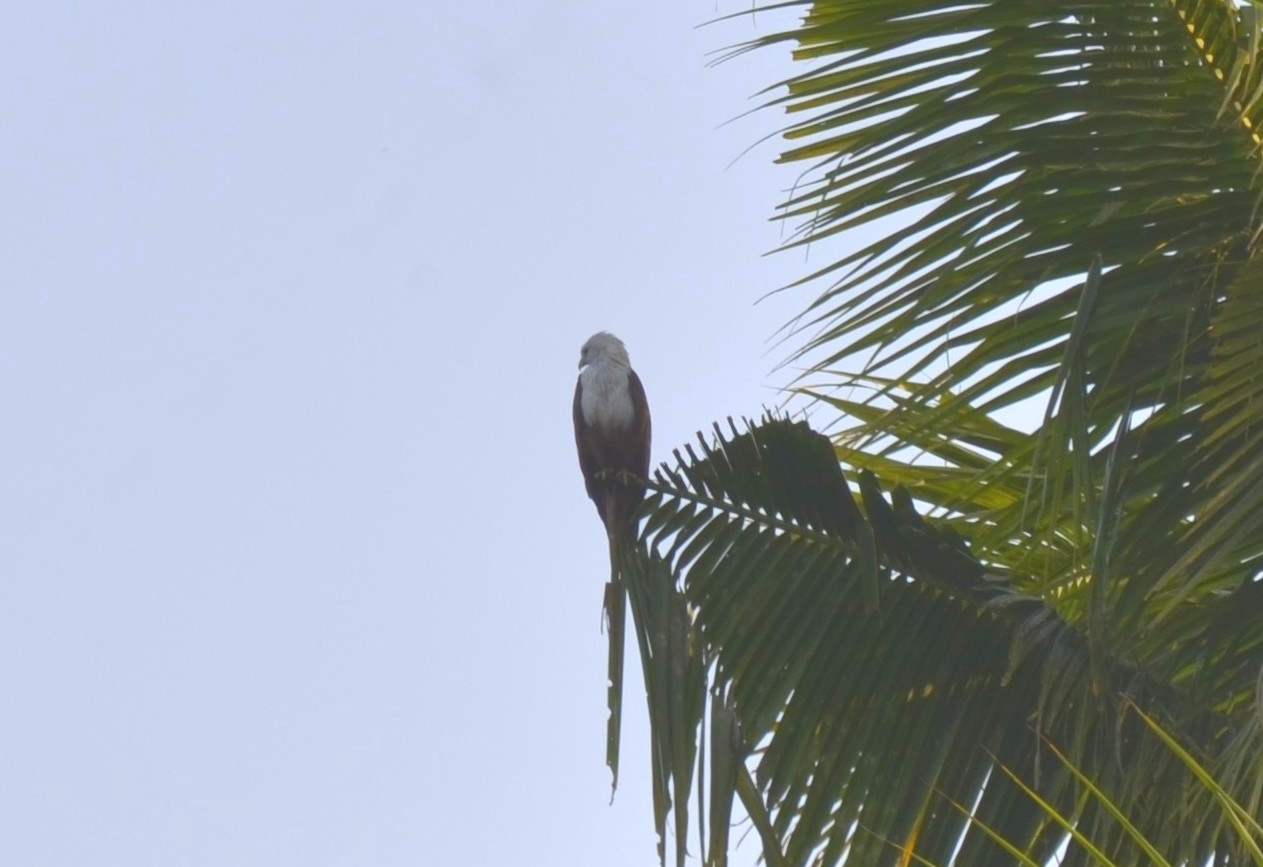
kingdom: Animalia
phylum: Chordata
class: Aves
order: Accipitriformes
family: Accipitridae
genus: Haliastur
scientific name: Haliastur indus
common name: Brahminy kite
